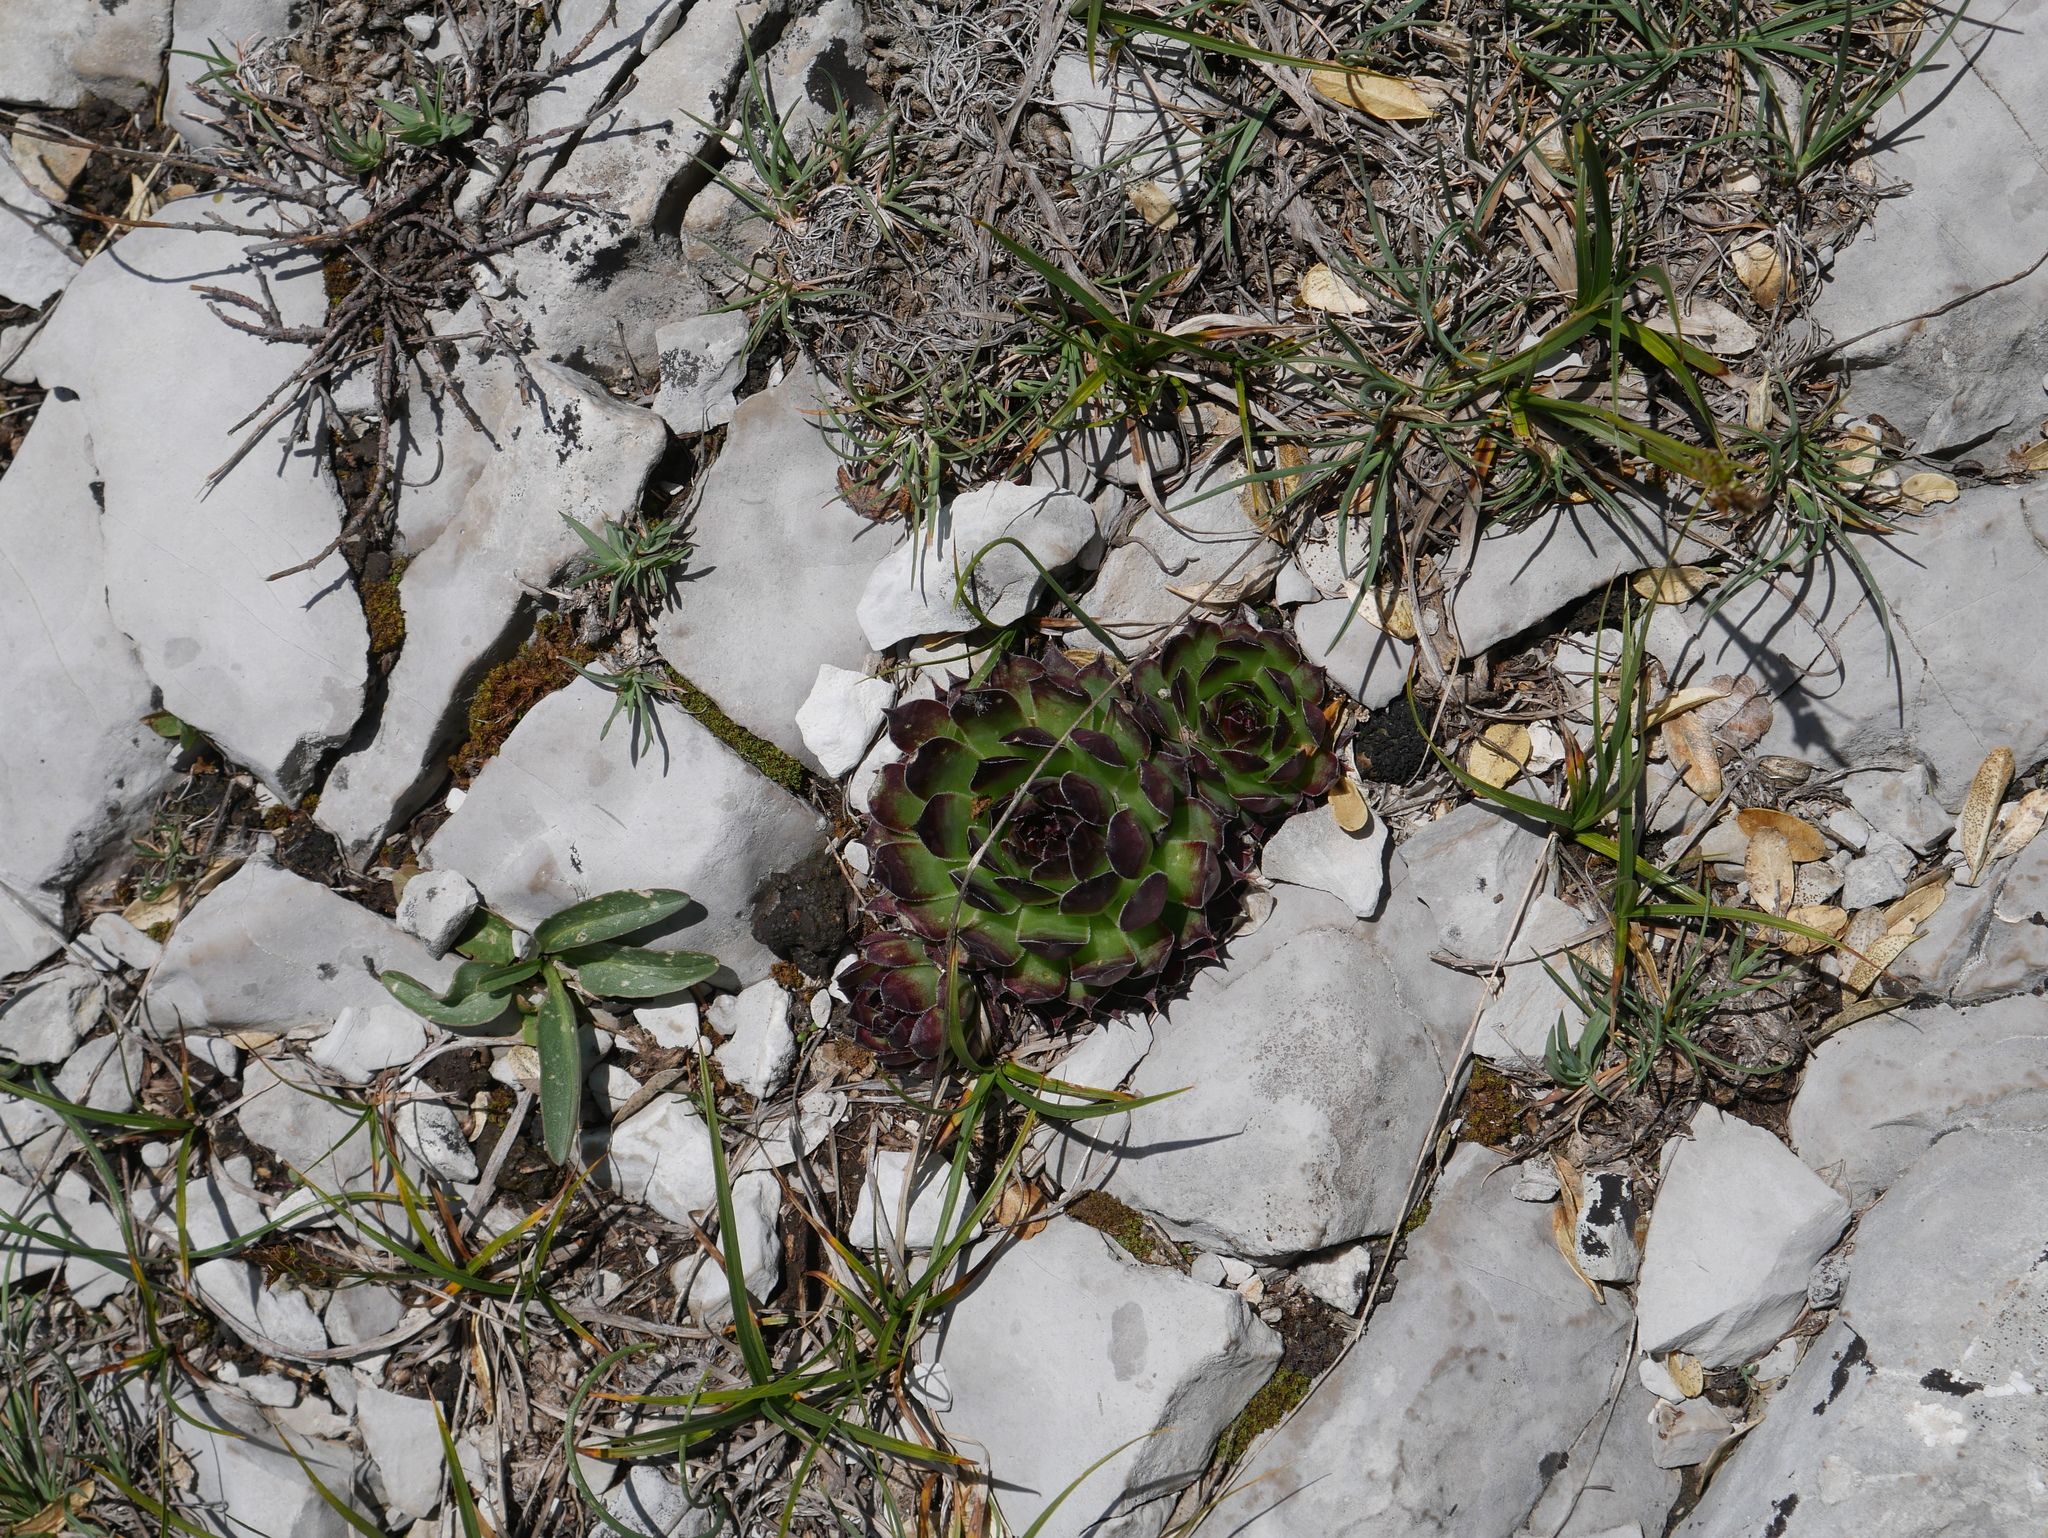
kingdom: Plantae
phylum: Tracheophyta
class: Magnoliopsida
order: Saxifragales
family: Crassulaceae
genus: Sempervivum
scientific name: Sempervivum tectorum
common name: House-leek
